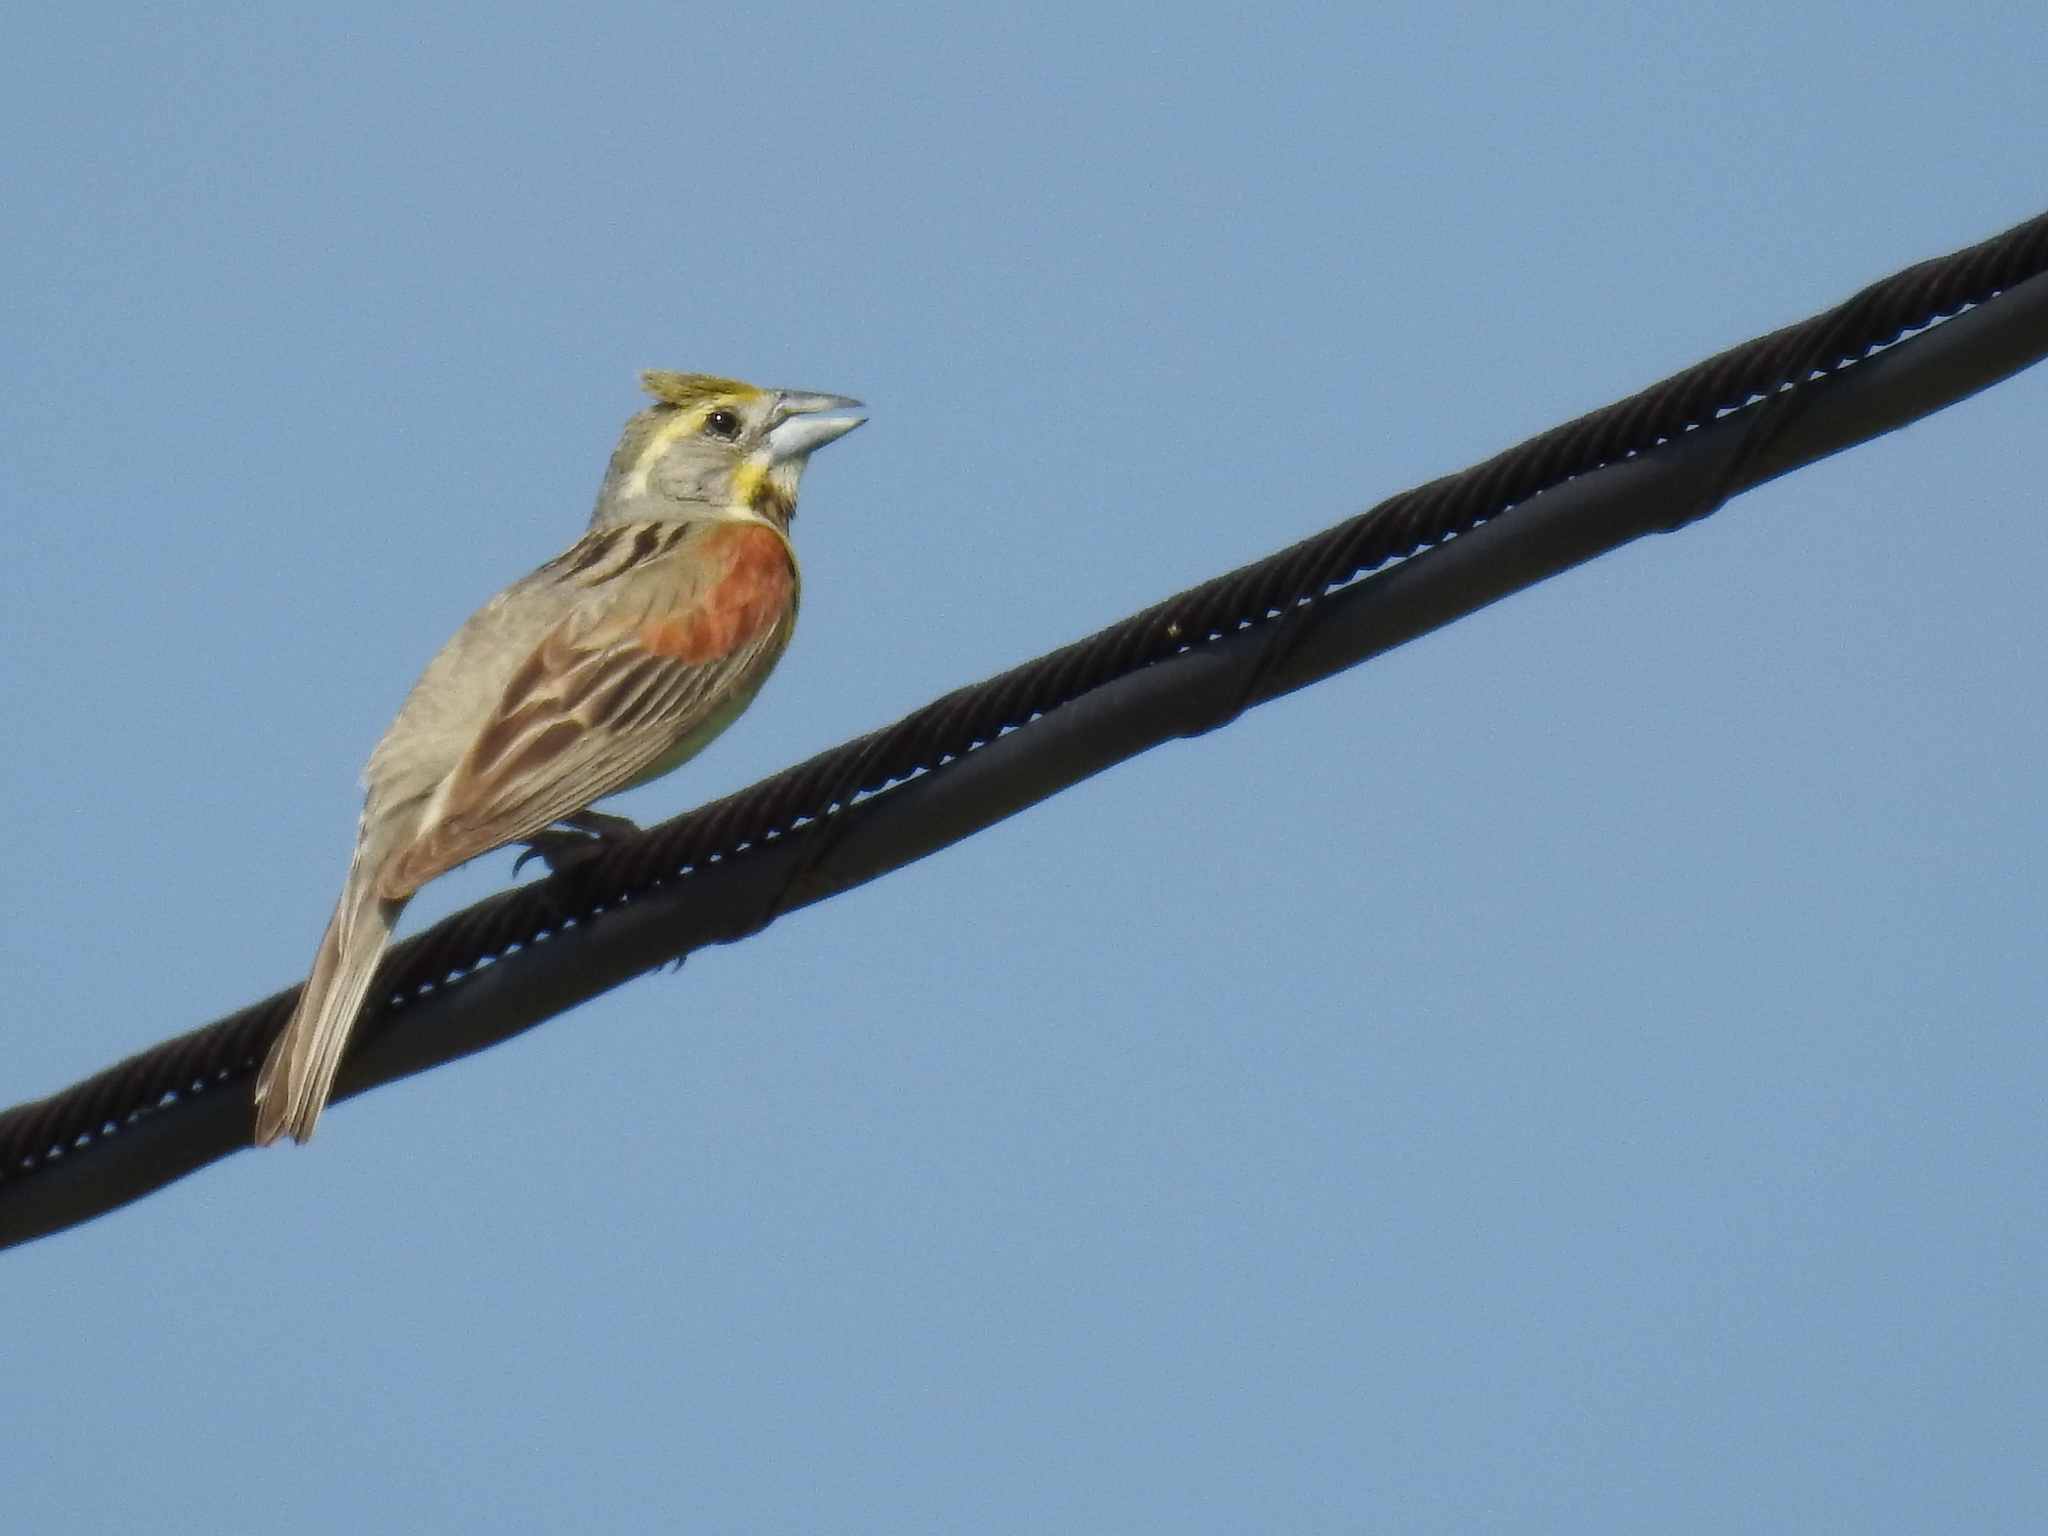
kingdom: Animalia
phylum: Chordata
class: Aves
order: Passeriformes
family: Cardinalidae
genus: Spiza
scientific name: Spiza americana
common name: Dickcissel
